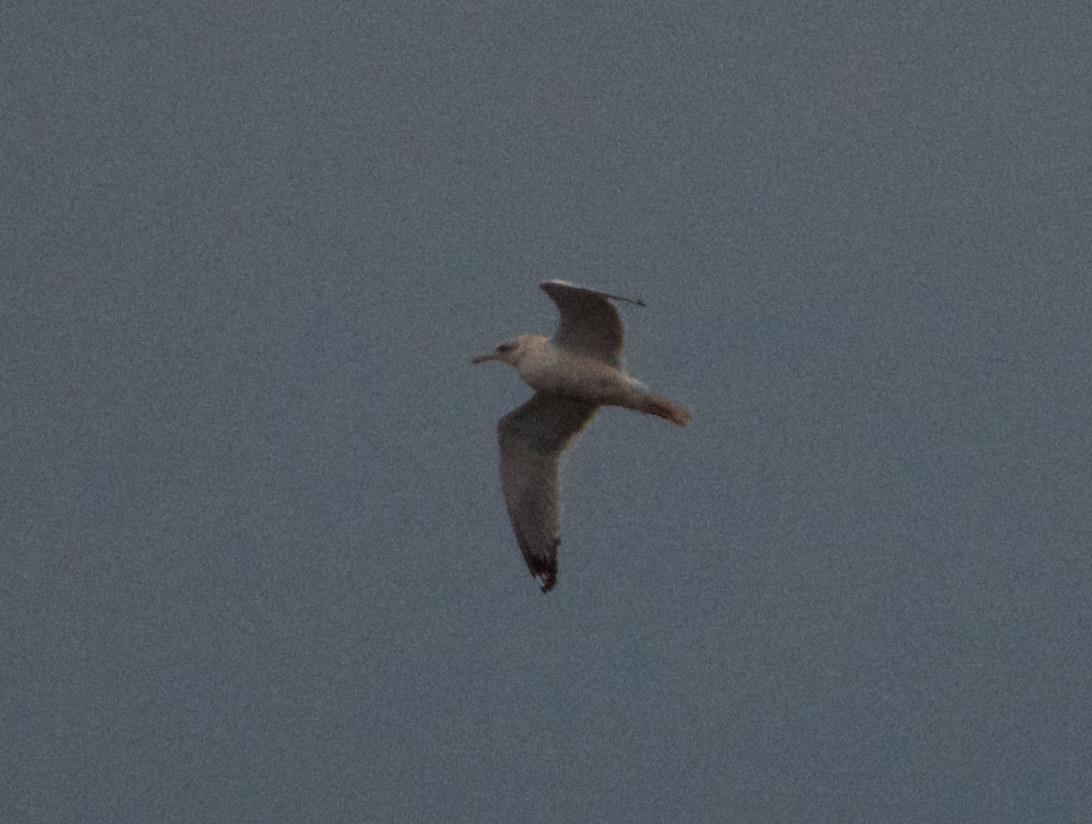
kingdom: Animalia
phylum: Chordata
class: Aves
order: Charadriiformes
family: Laridae
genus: Larus
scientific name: Larus californicus
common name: California gull
